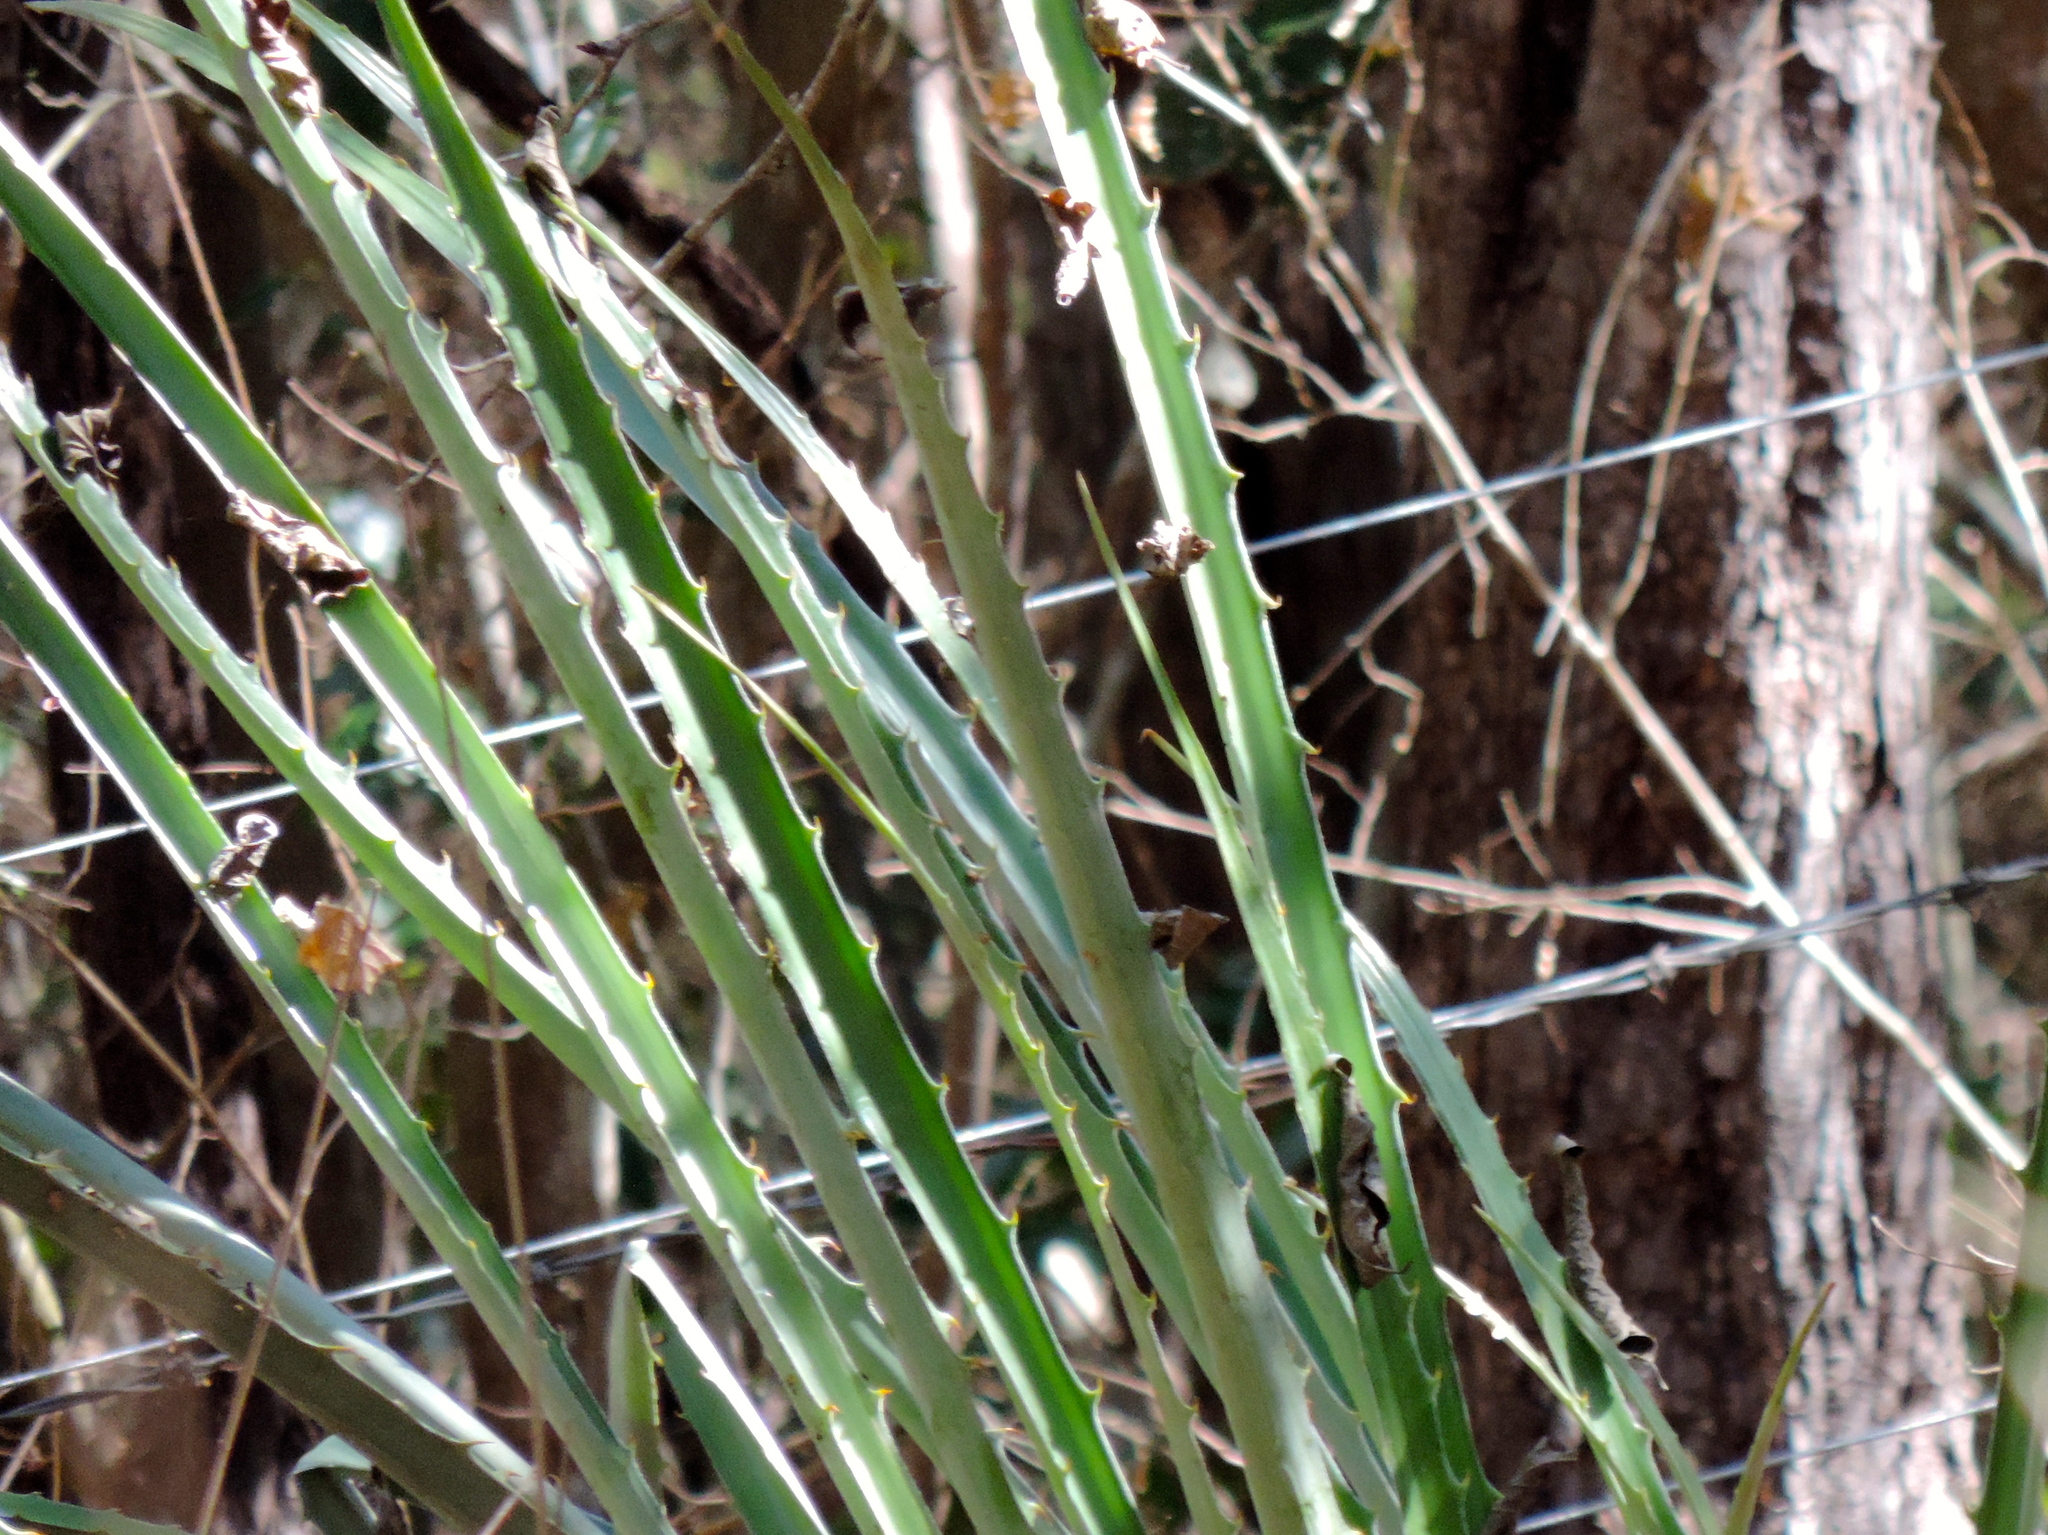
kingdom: Plantae
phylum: Tracheophyta
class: Liliopsida
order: Poales
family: Bromeliaceae
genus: Bromelia
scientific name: Bromelia karatas
